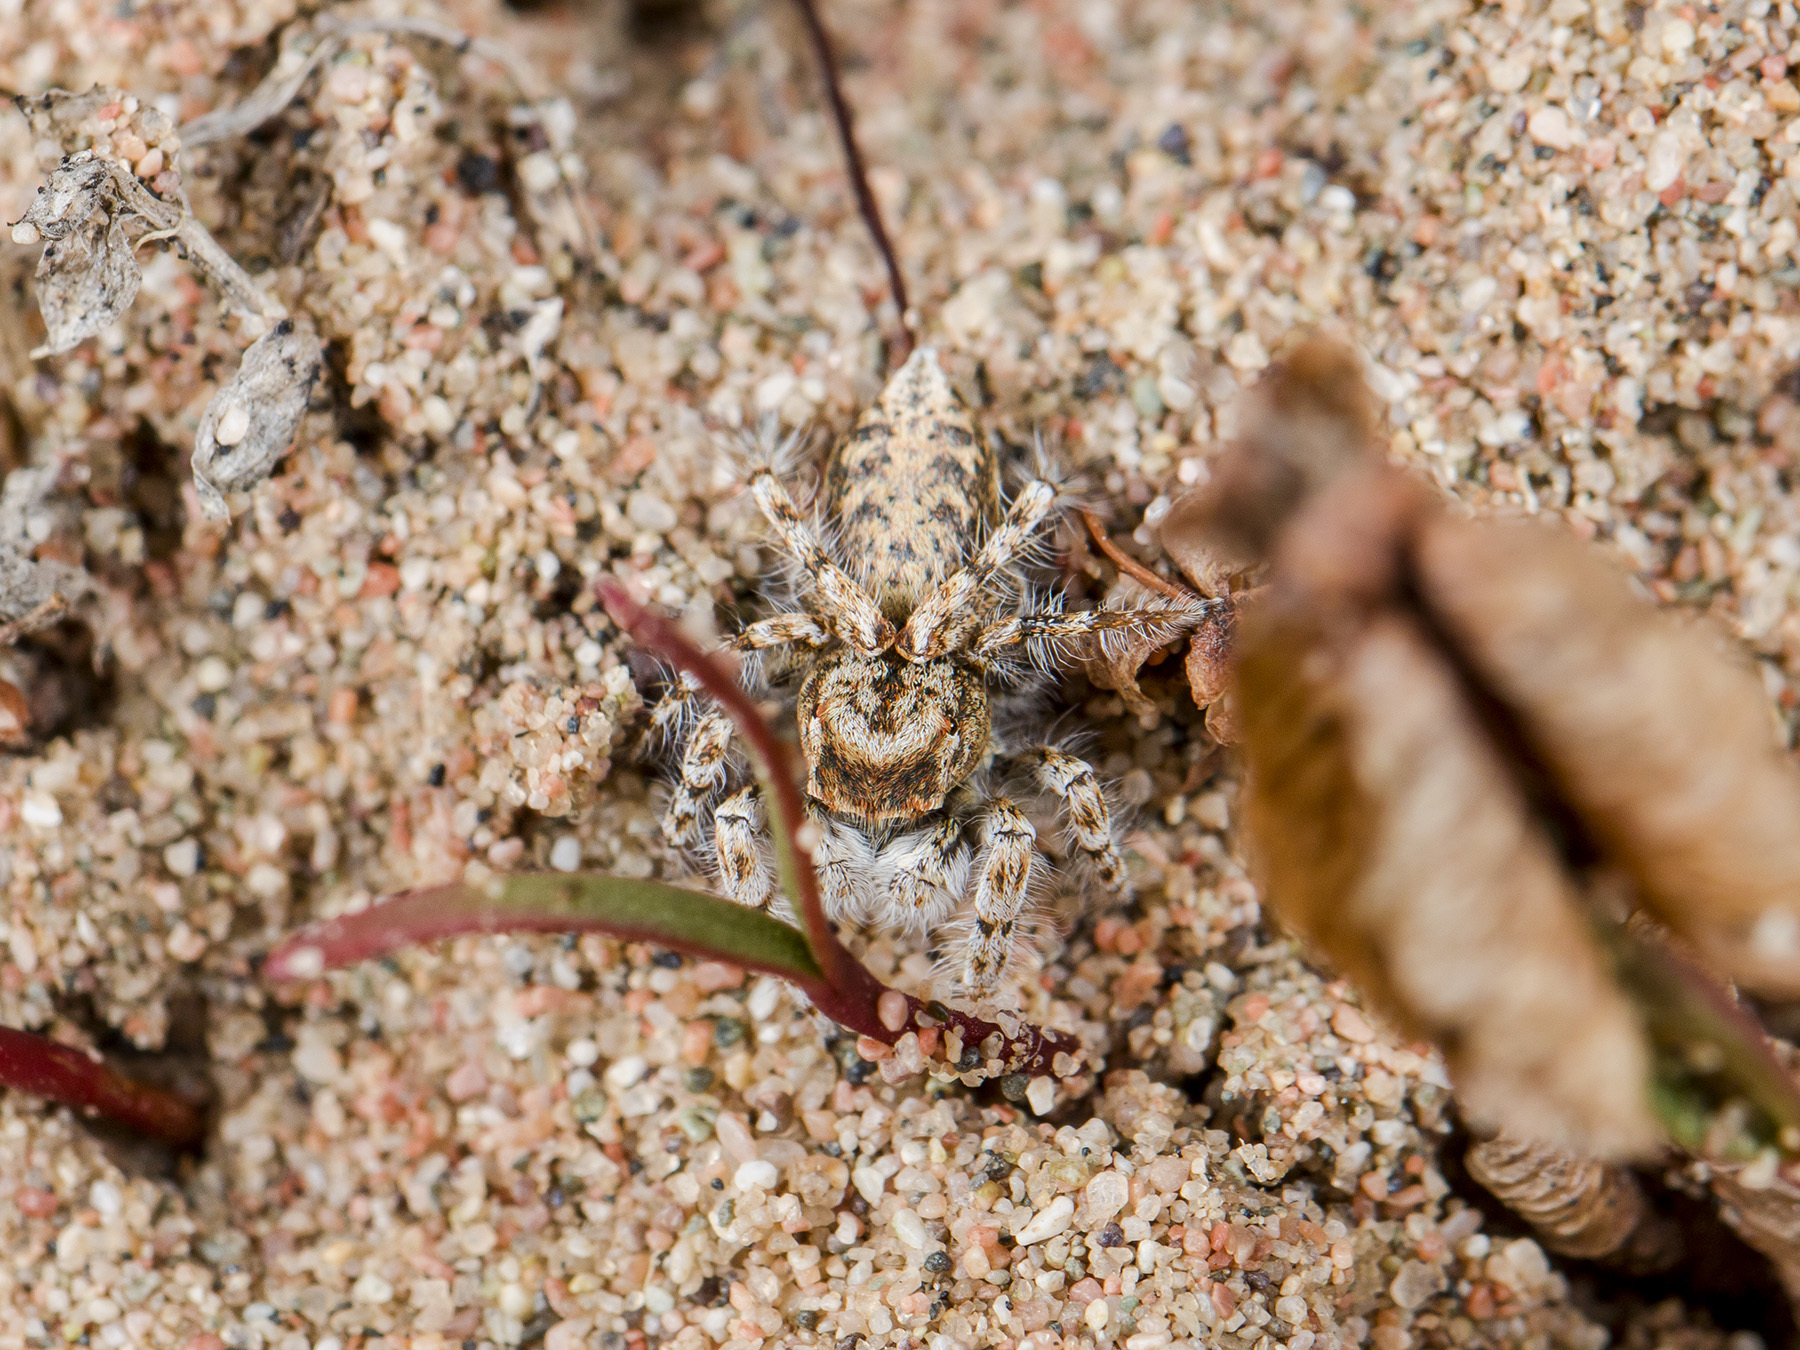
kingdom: Animalia
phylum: Arthropoda
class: Arachnida
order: Araneae
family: Salticidae
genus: Yllenus
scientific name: Yllenus uiguricus
